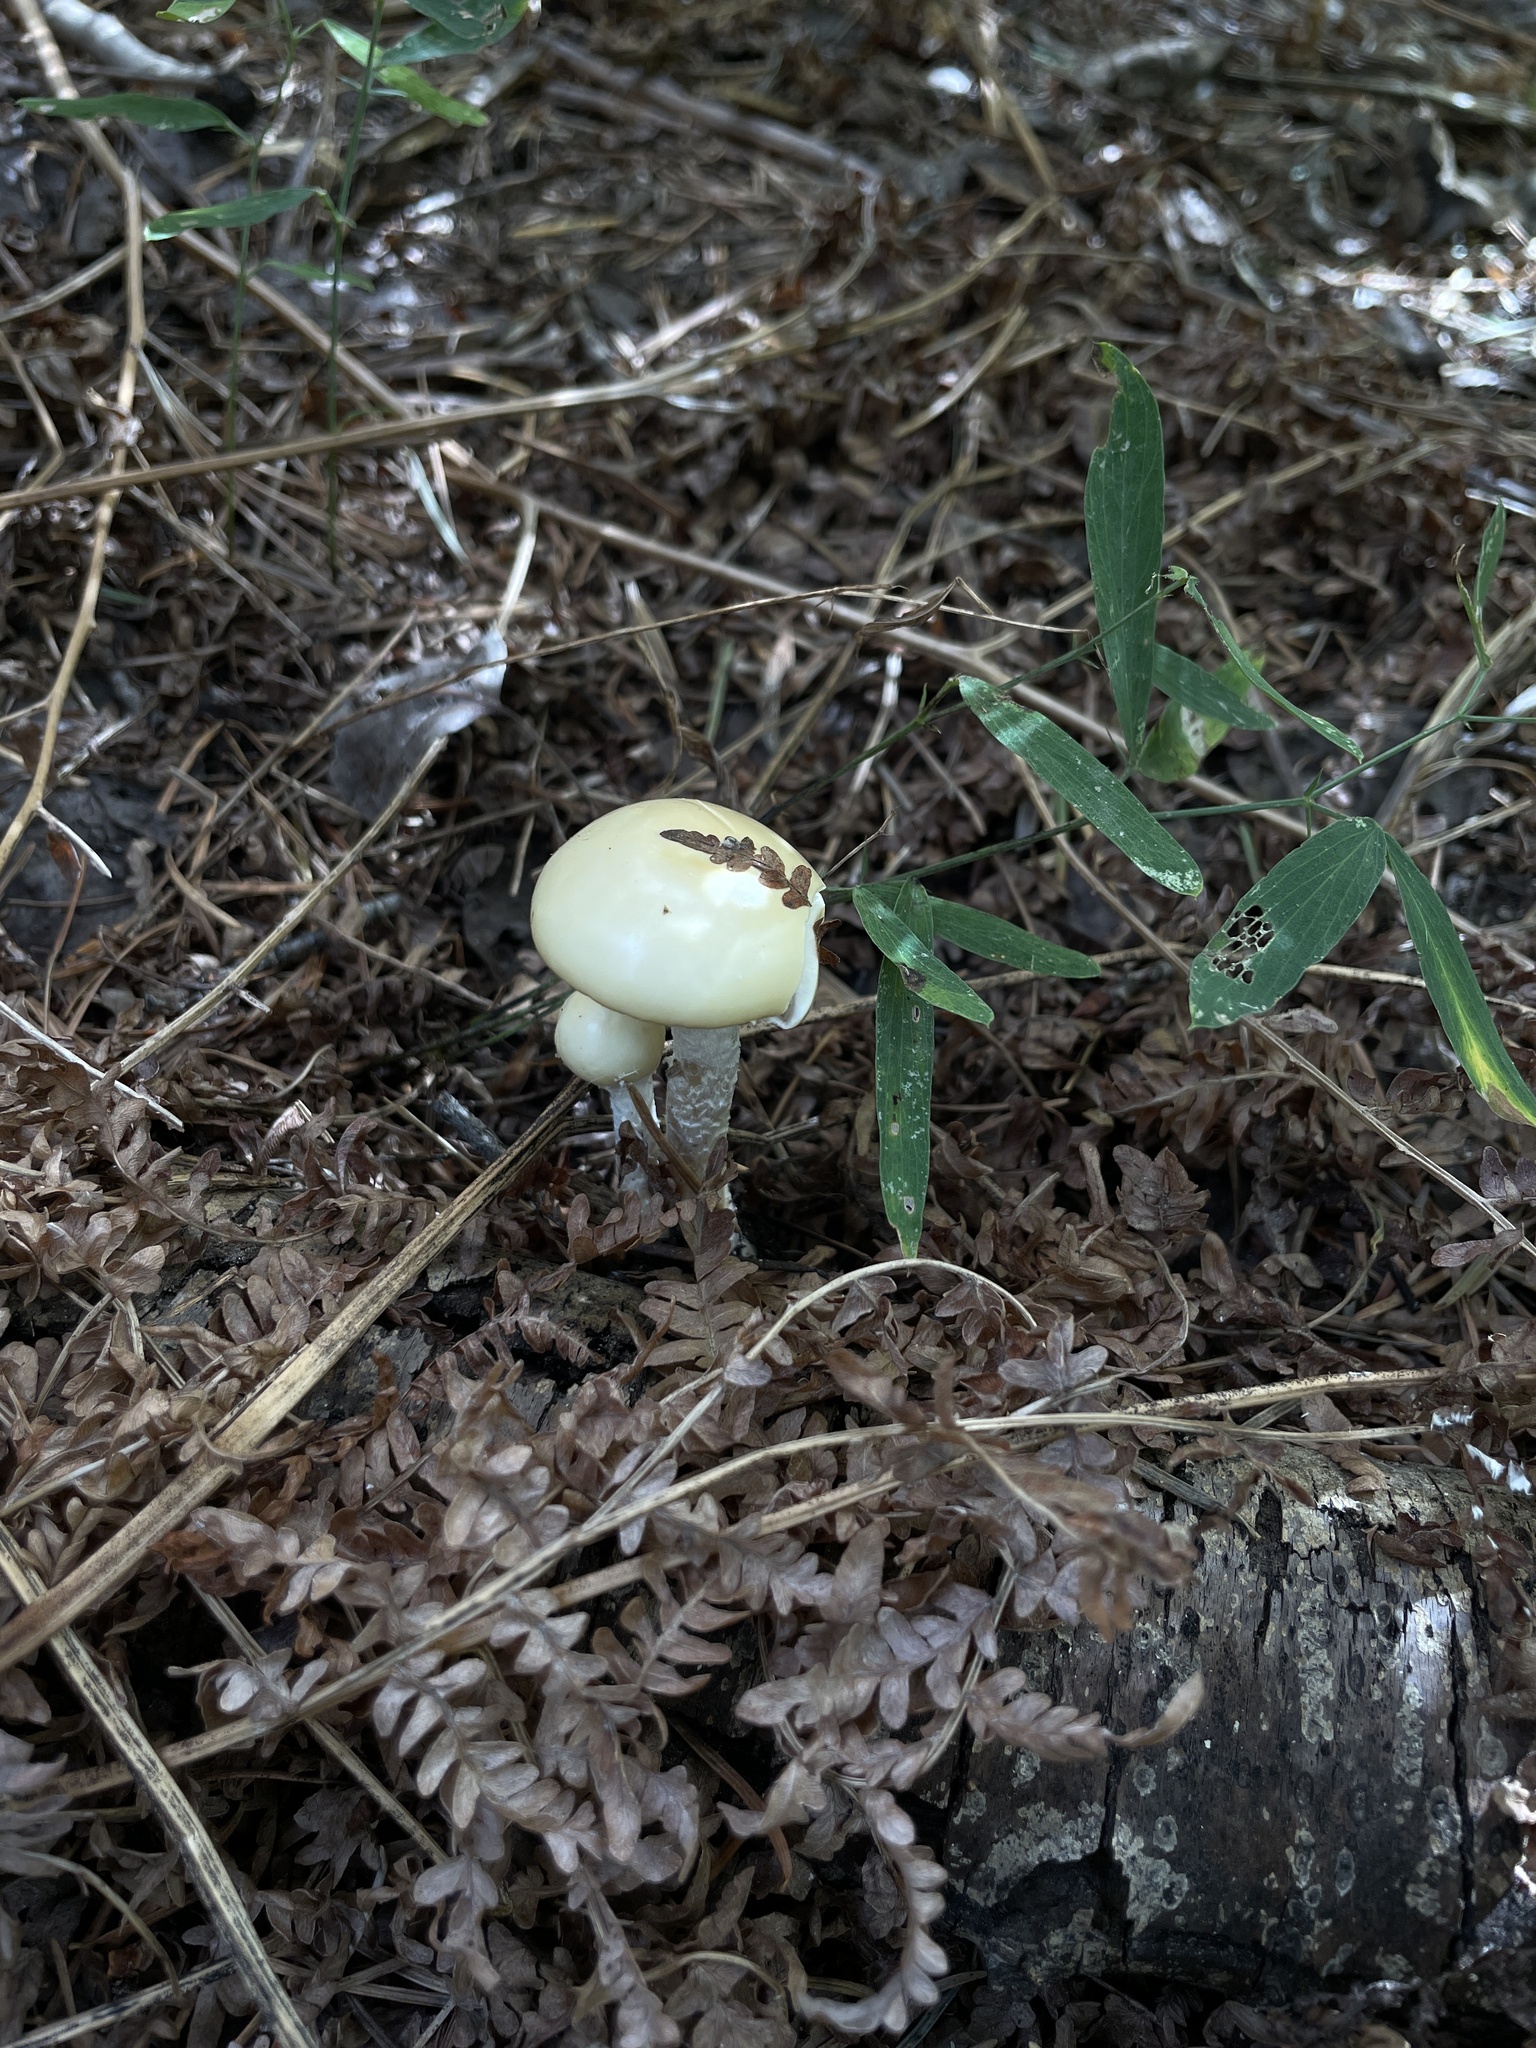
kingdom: Fungi
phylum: Basidiomycota
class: Agaricomycetes
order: Agaricales
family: Strophariaceae
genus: Stropharia
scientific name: Stropharia ambigua
